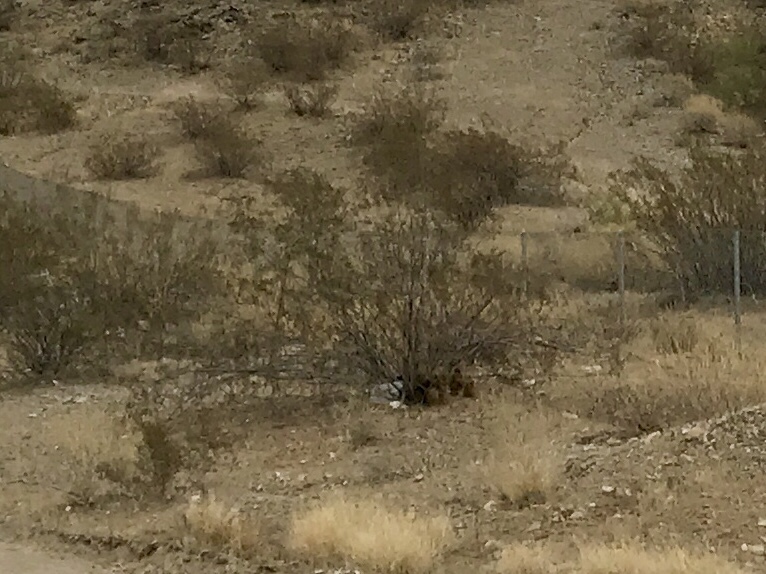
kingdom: Plantae
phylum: Tracheophyta
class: Magnoliopsida
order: Zygophyllales
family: Zygophyllaceae
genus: Larrea
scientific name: Larrea tridentata
